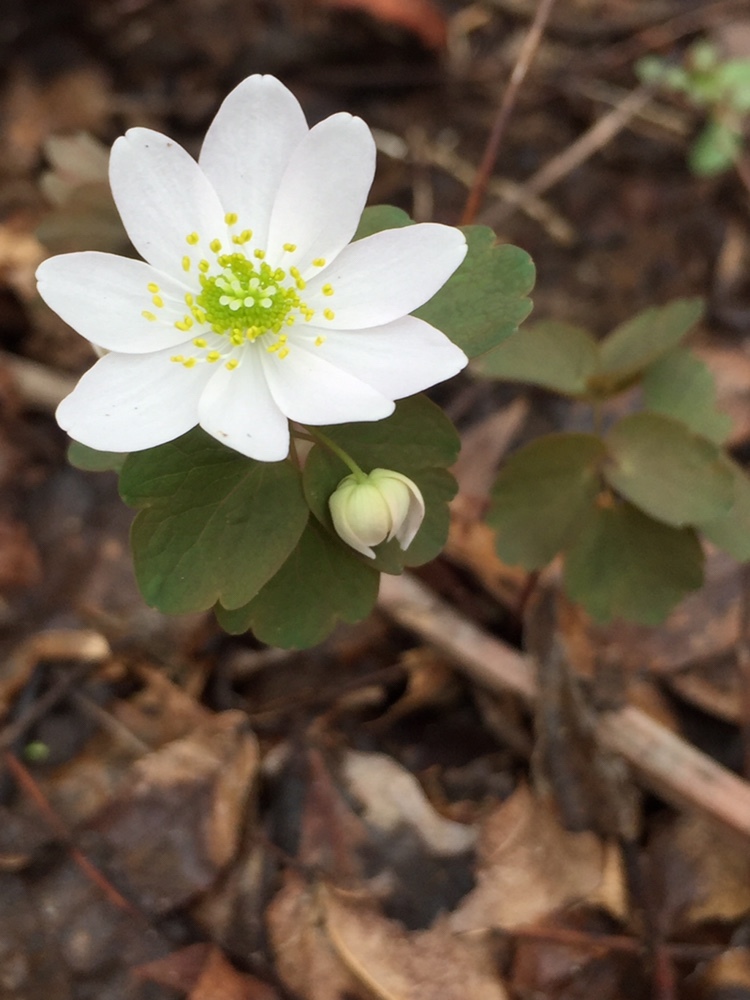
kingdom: Plantae
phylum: Tracheophyta
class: Magnoliopsida
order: Ranunculales
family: Ranunculaceae
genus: Thalictrum
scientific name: Thalictrum thalictroides
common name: Rue-anemone
